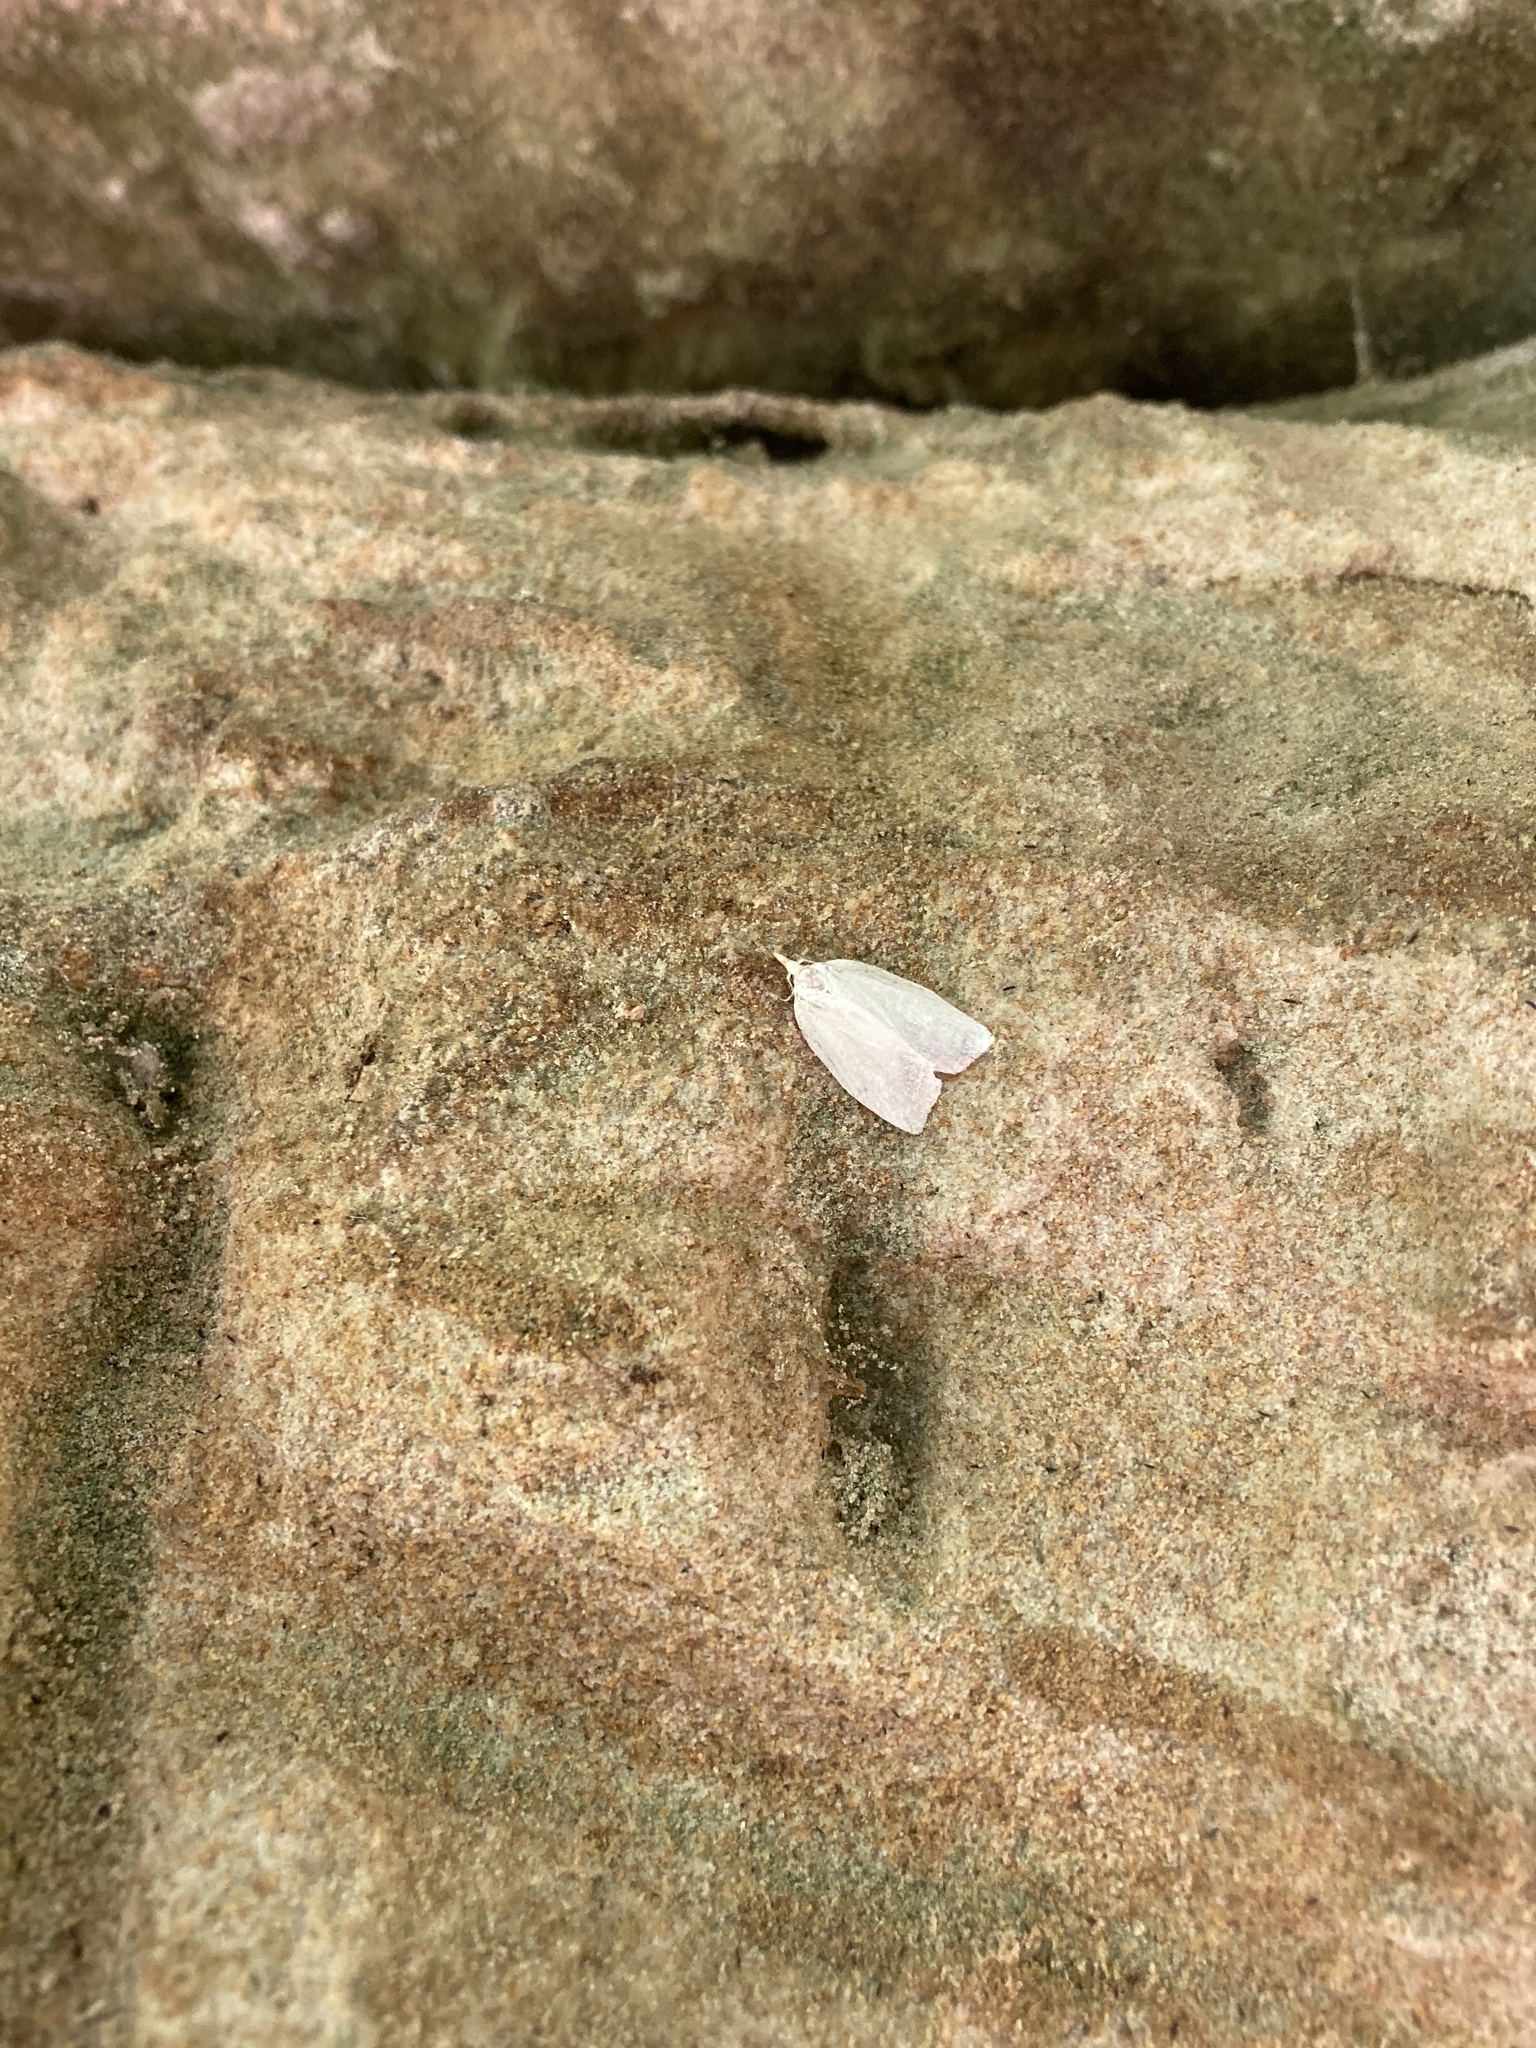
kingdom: Animalia
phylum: Arthropoda
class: Insecta
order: Lepidoptera
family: Tortricidae
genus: Cenopis
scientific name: Cenopis pettitana
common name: Maple-basswood leafroller moth
